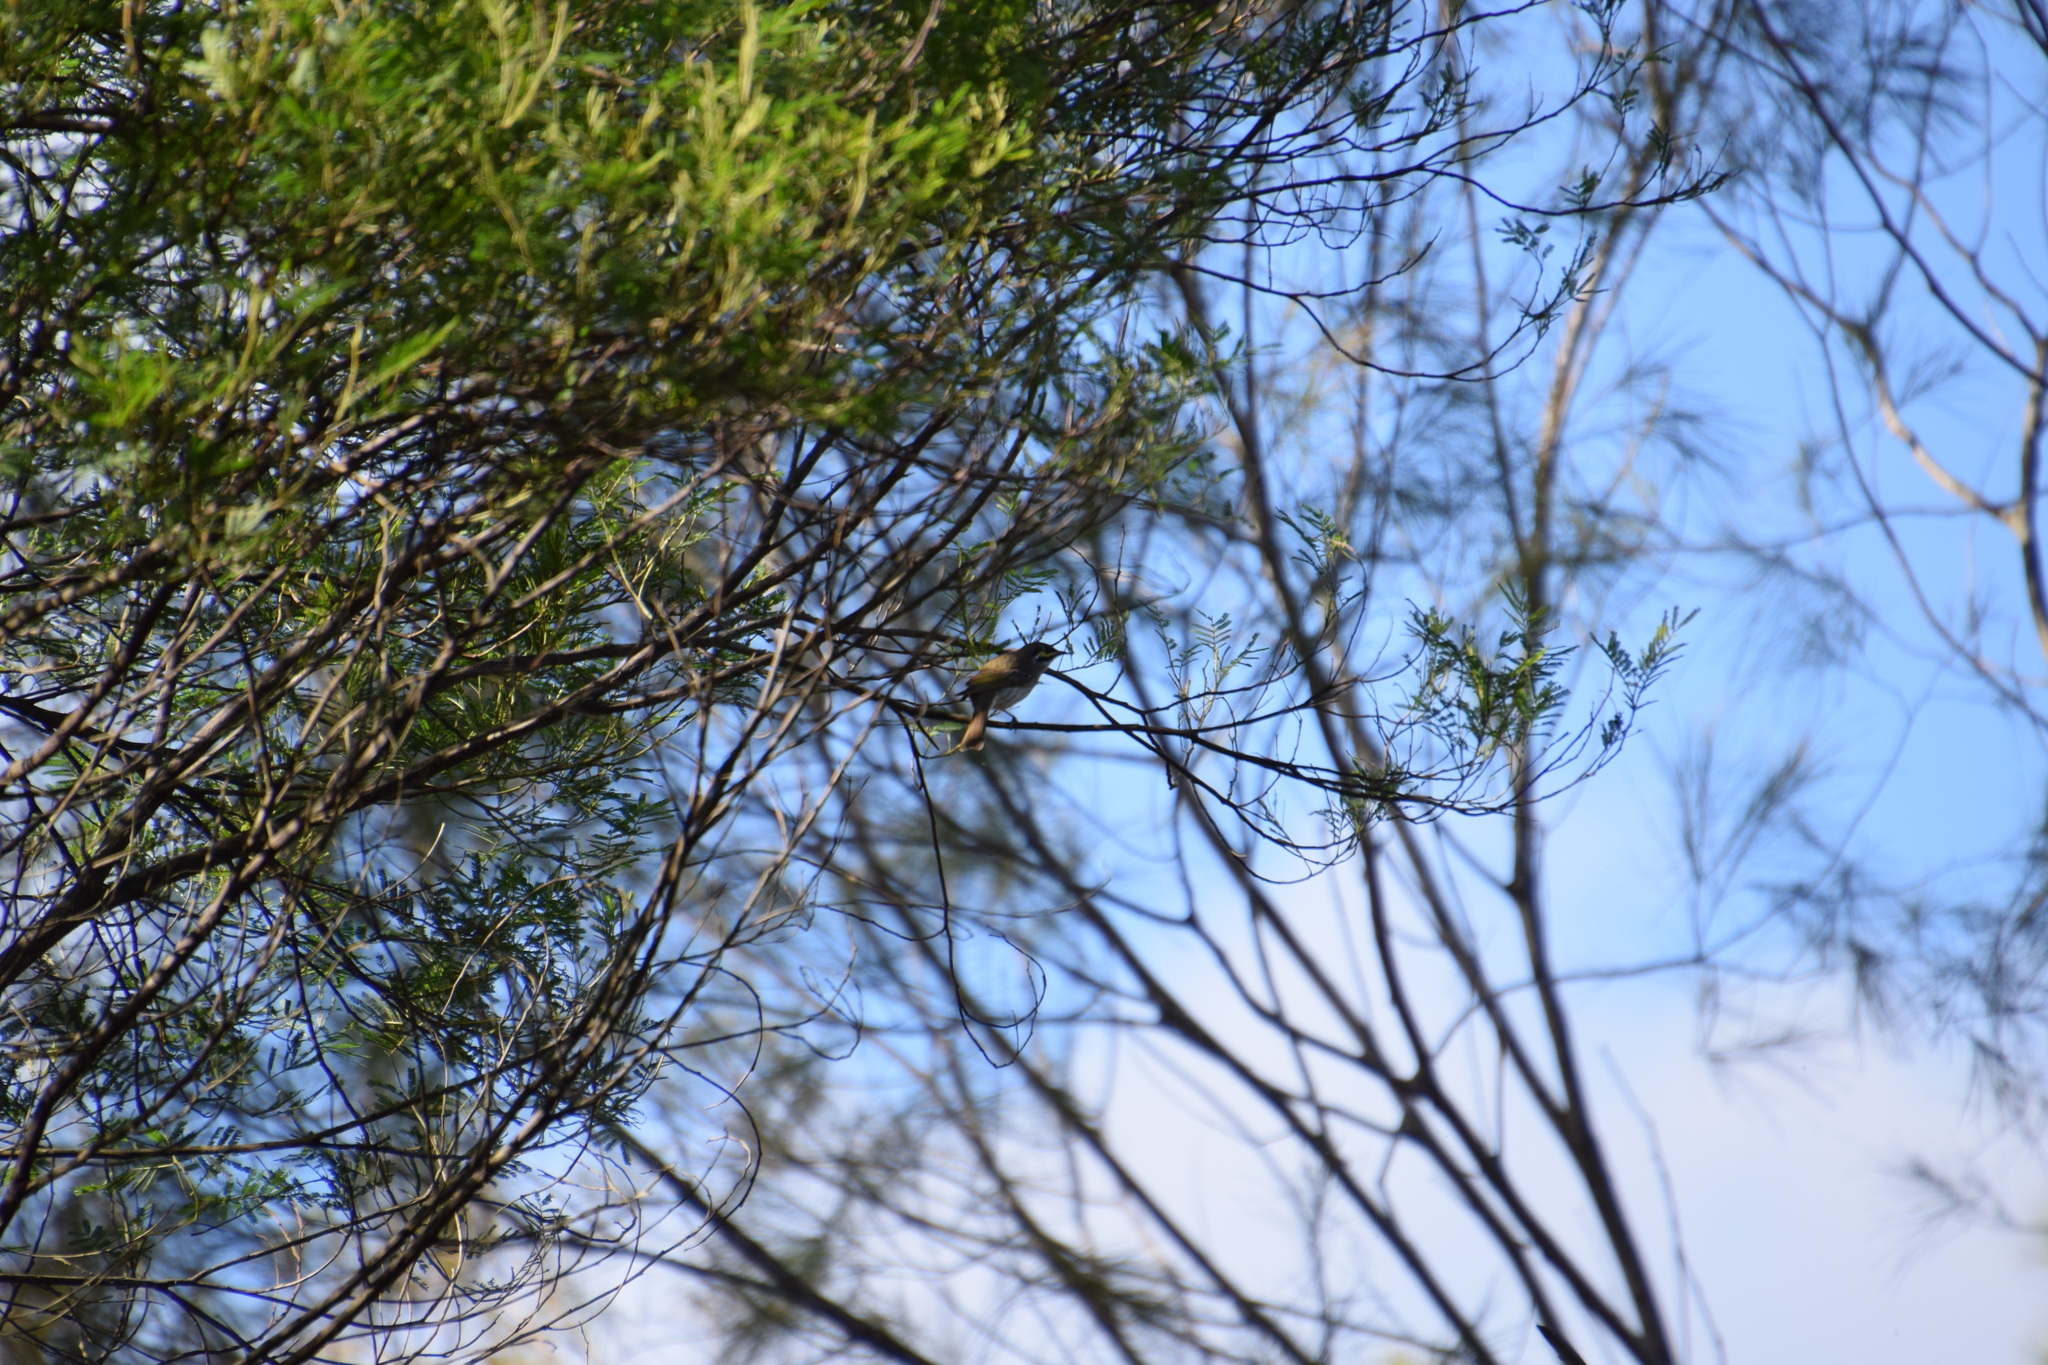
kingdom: Animalia
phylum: Chordata
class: Aves
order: Passeriformes
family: Meliphagidae
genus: Caligavis
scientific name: Caligavis chrysops
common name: Yellow-faced honeyeater
